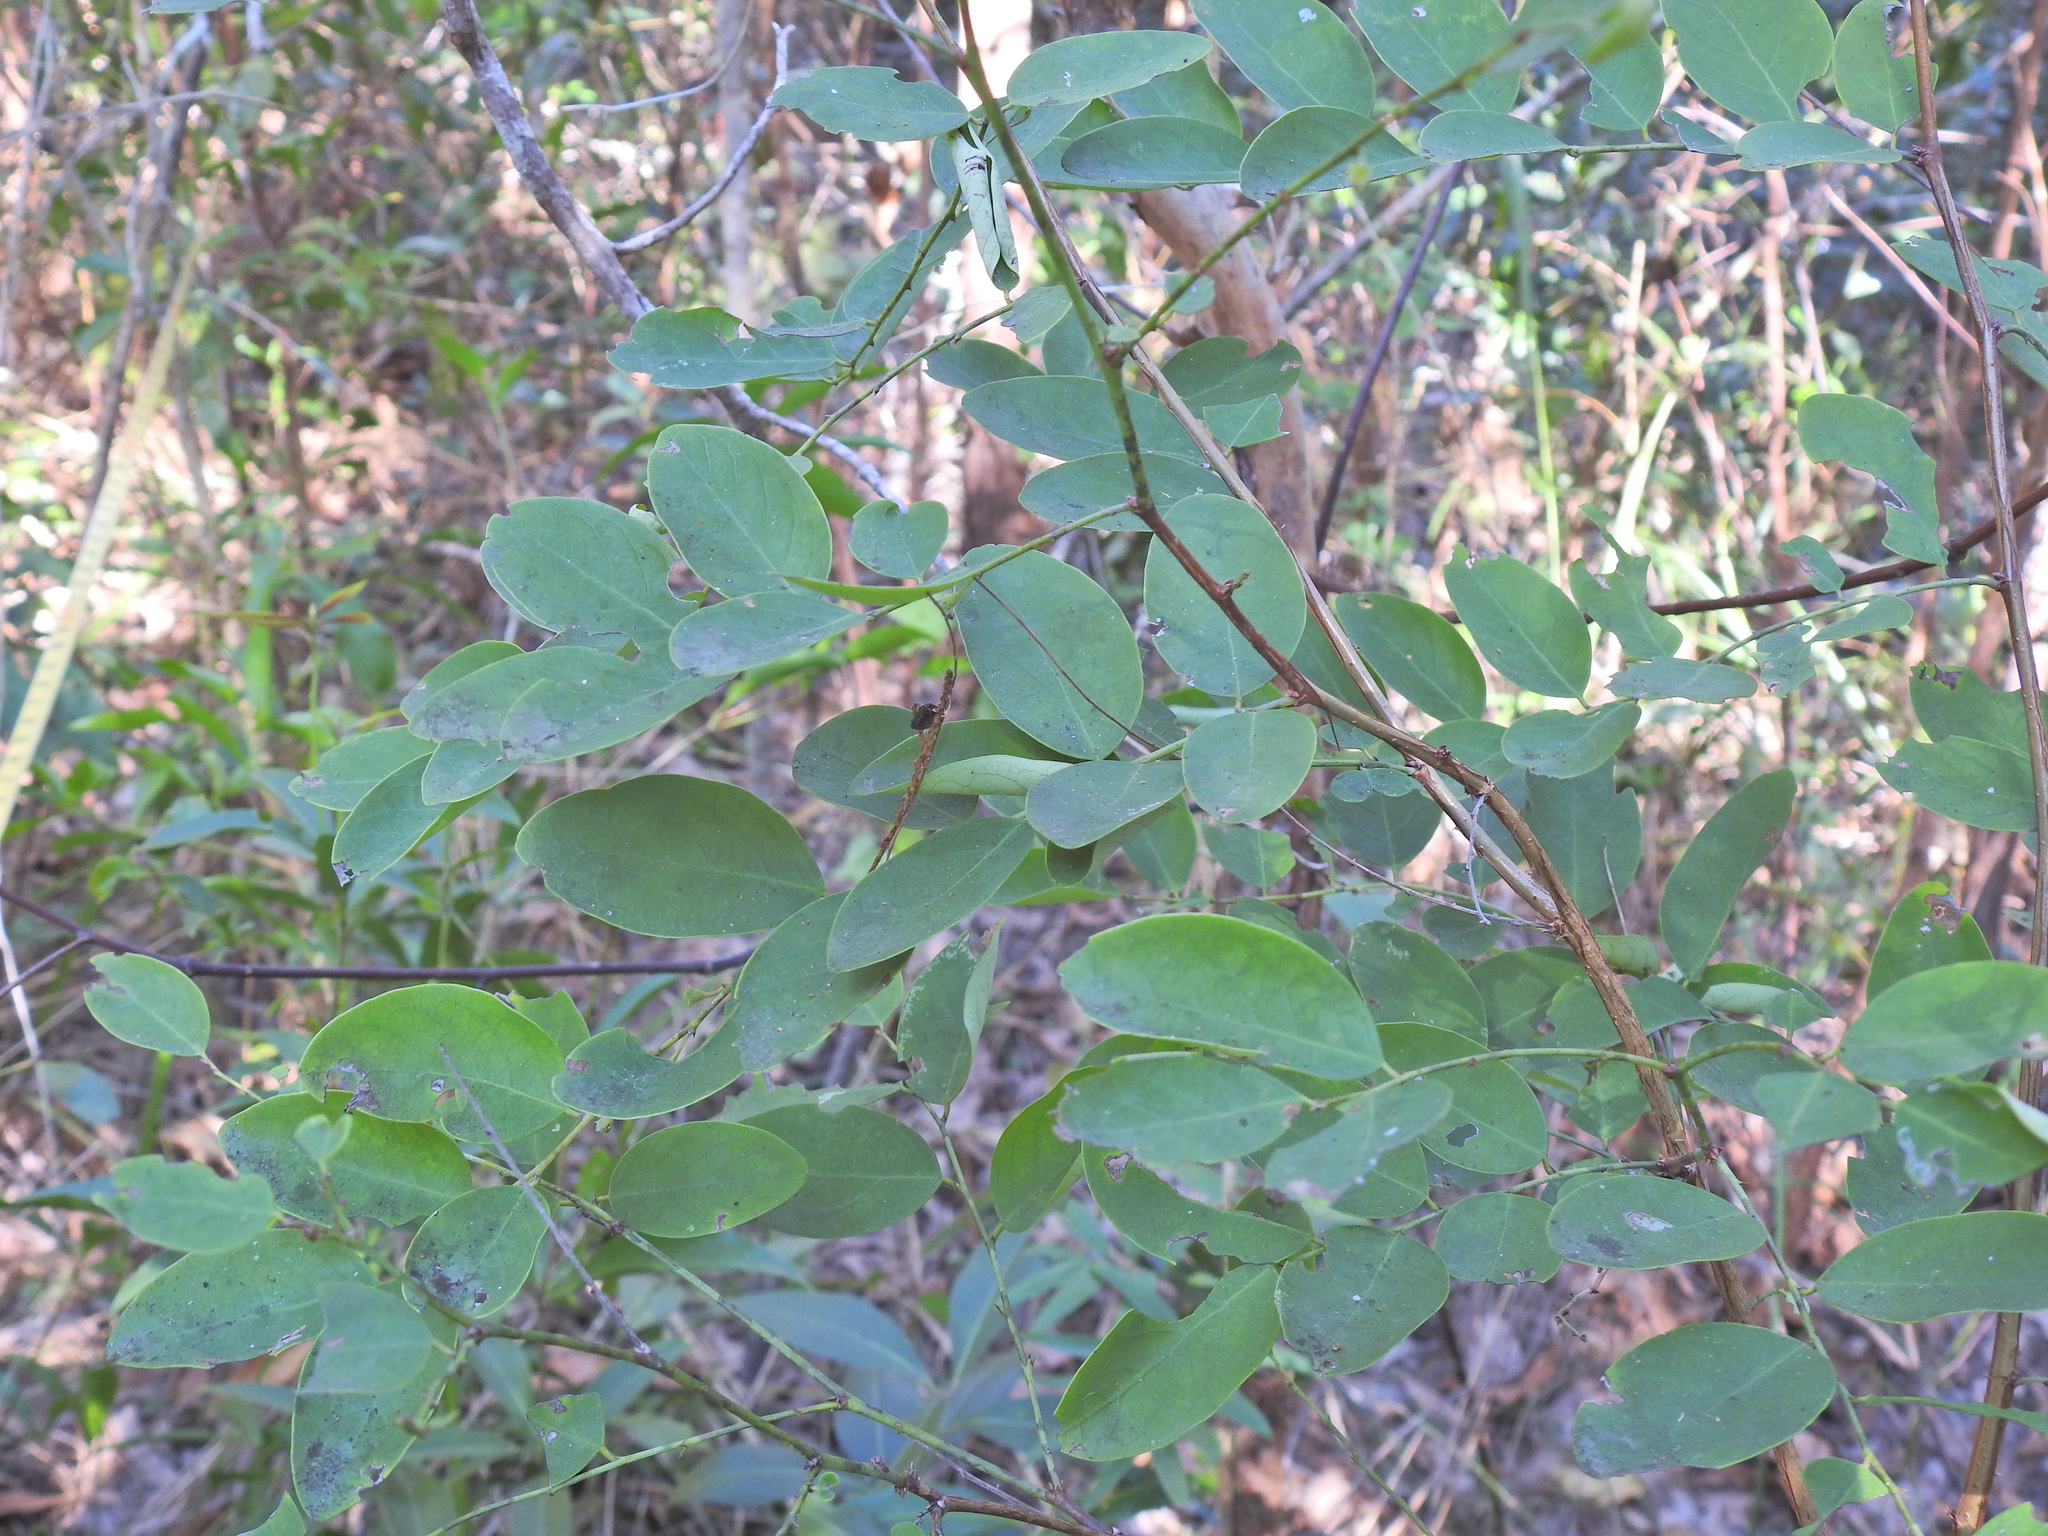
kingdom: Plantae
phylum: Tracheophyta
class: Magnoliopsida
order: Malpighiales
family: Phyllanthaceae
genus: Breynia
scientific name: Breynia oblongifolia
